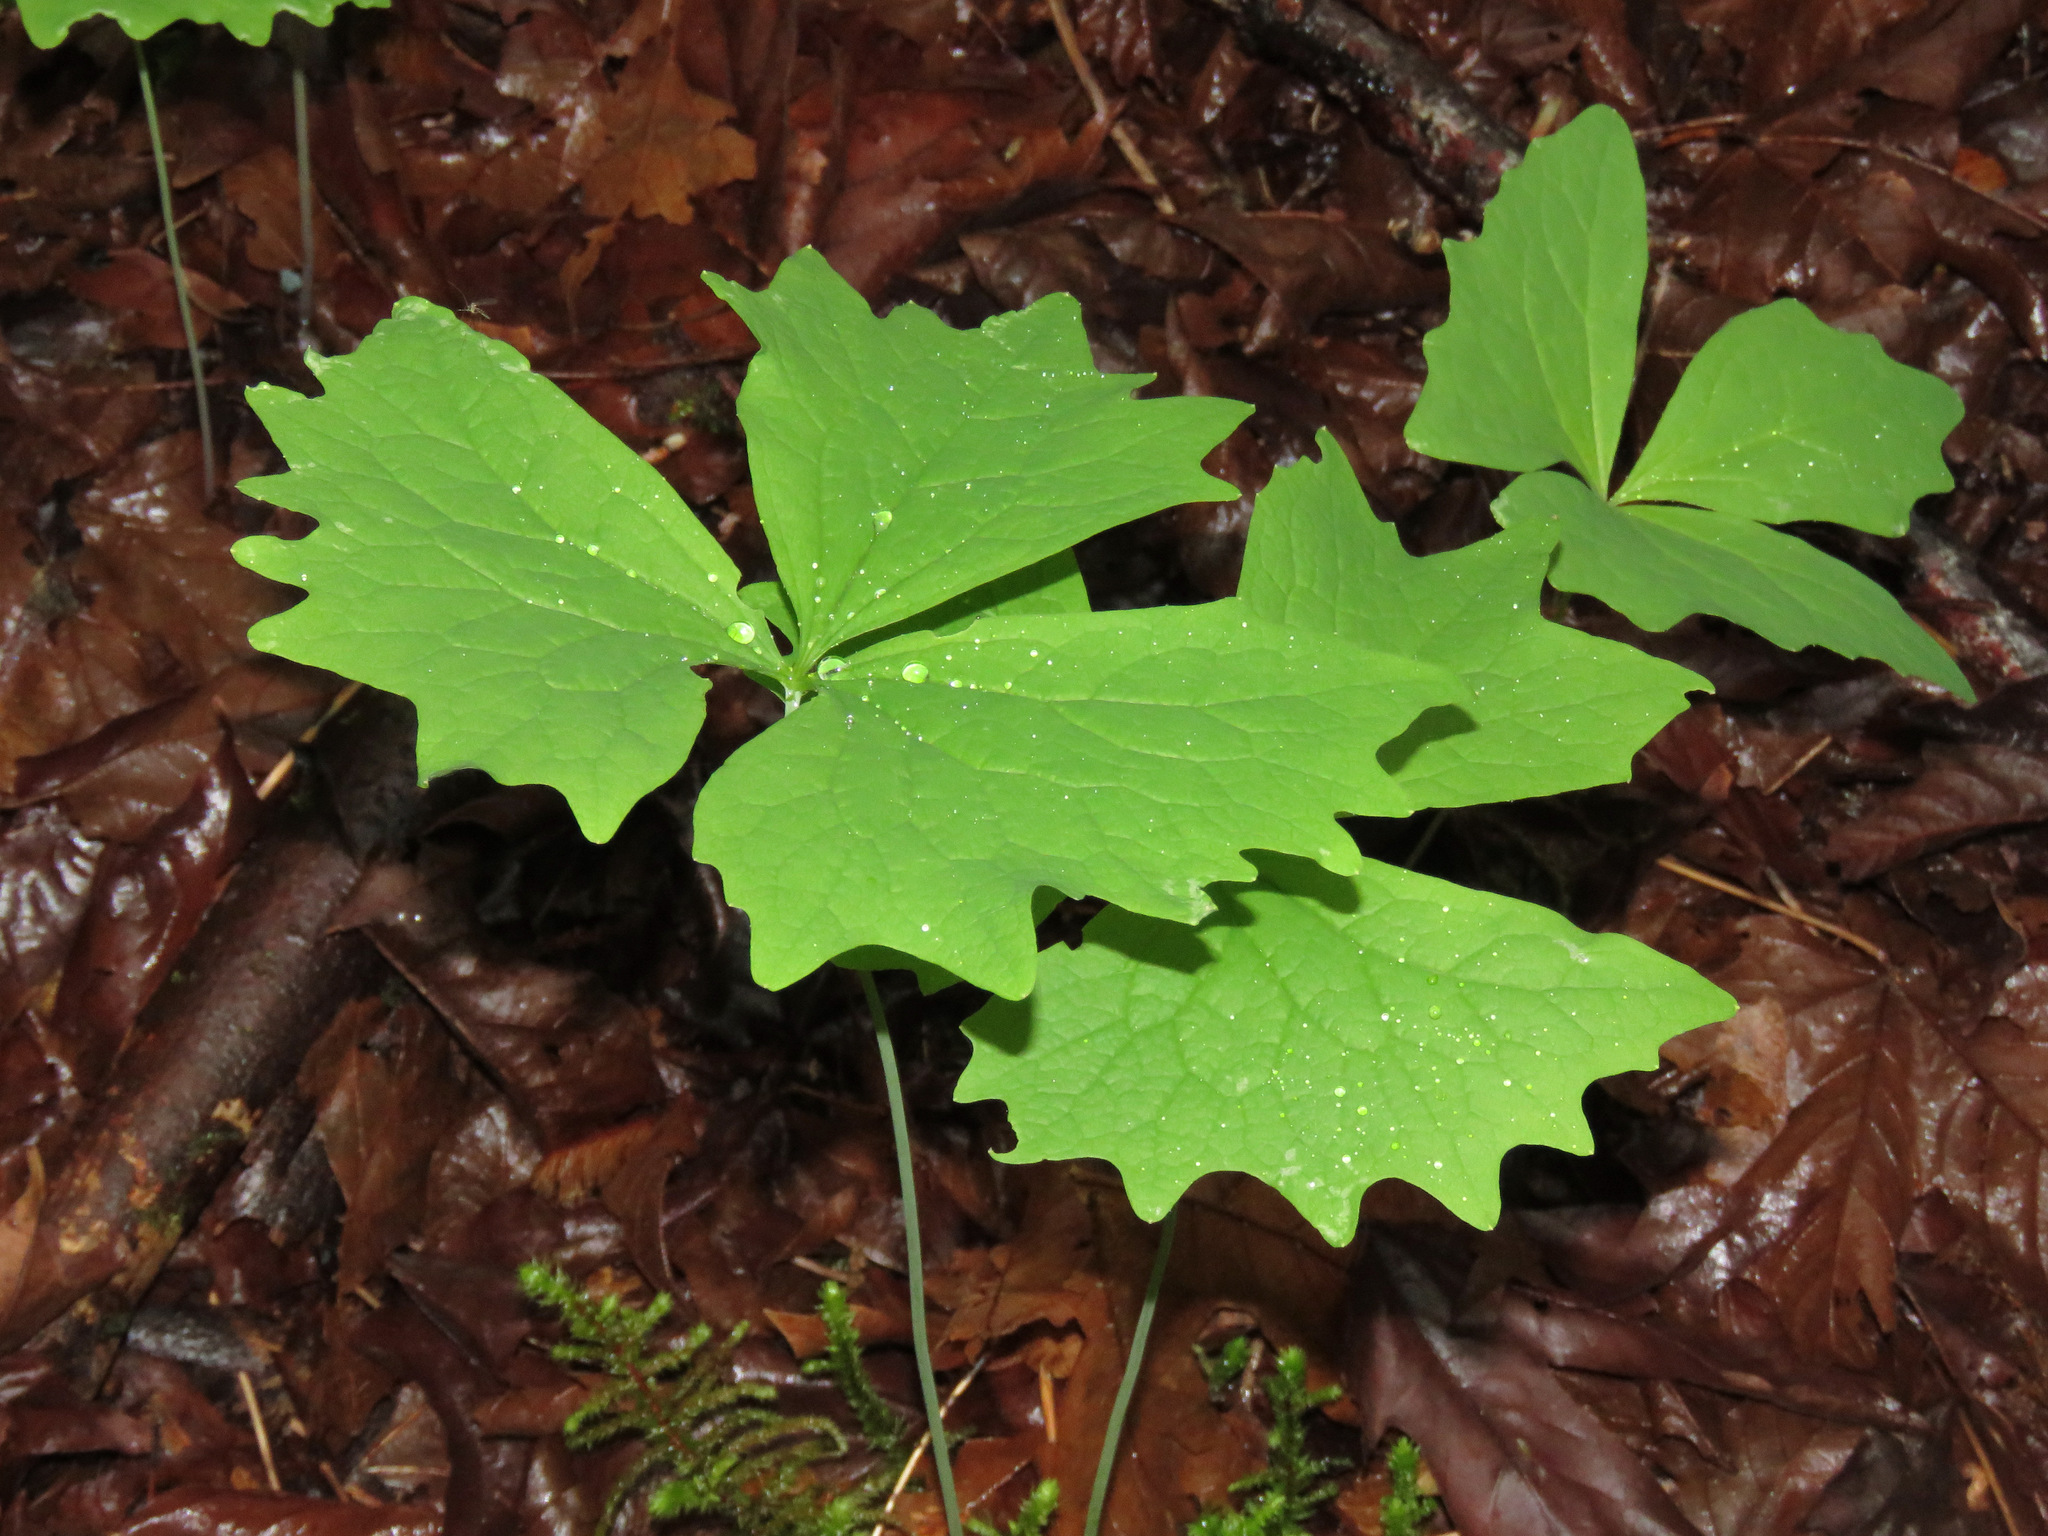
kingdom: Plantae
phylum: Tracheophyta
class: Magnoliopsida
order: Ranunculales
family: Berberidaceae
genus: Achlys
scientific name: Achlys triphylla
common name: Vanilla-leaf
